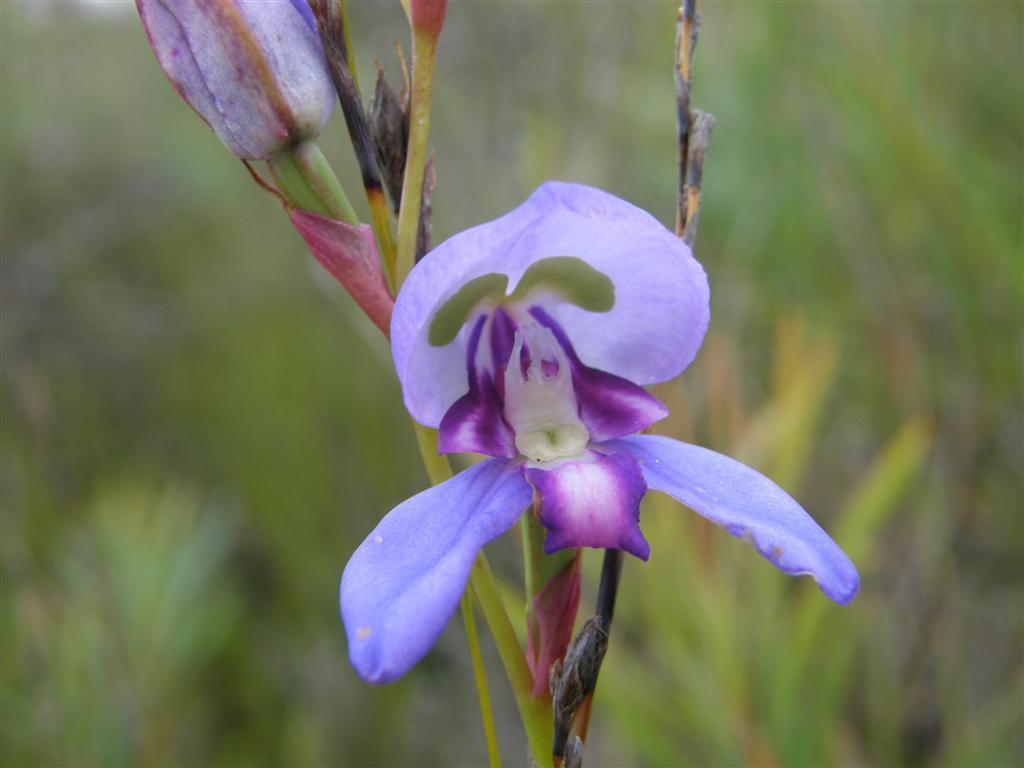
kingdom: Plantae
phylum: Tracheophyta
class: Liliopsida
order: Asparagales
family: Orchidaceae
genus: Disa
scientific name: Disa graminifolia
